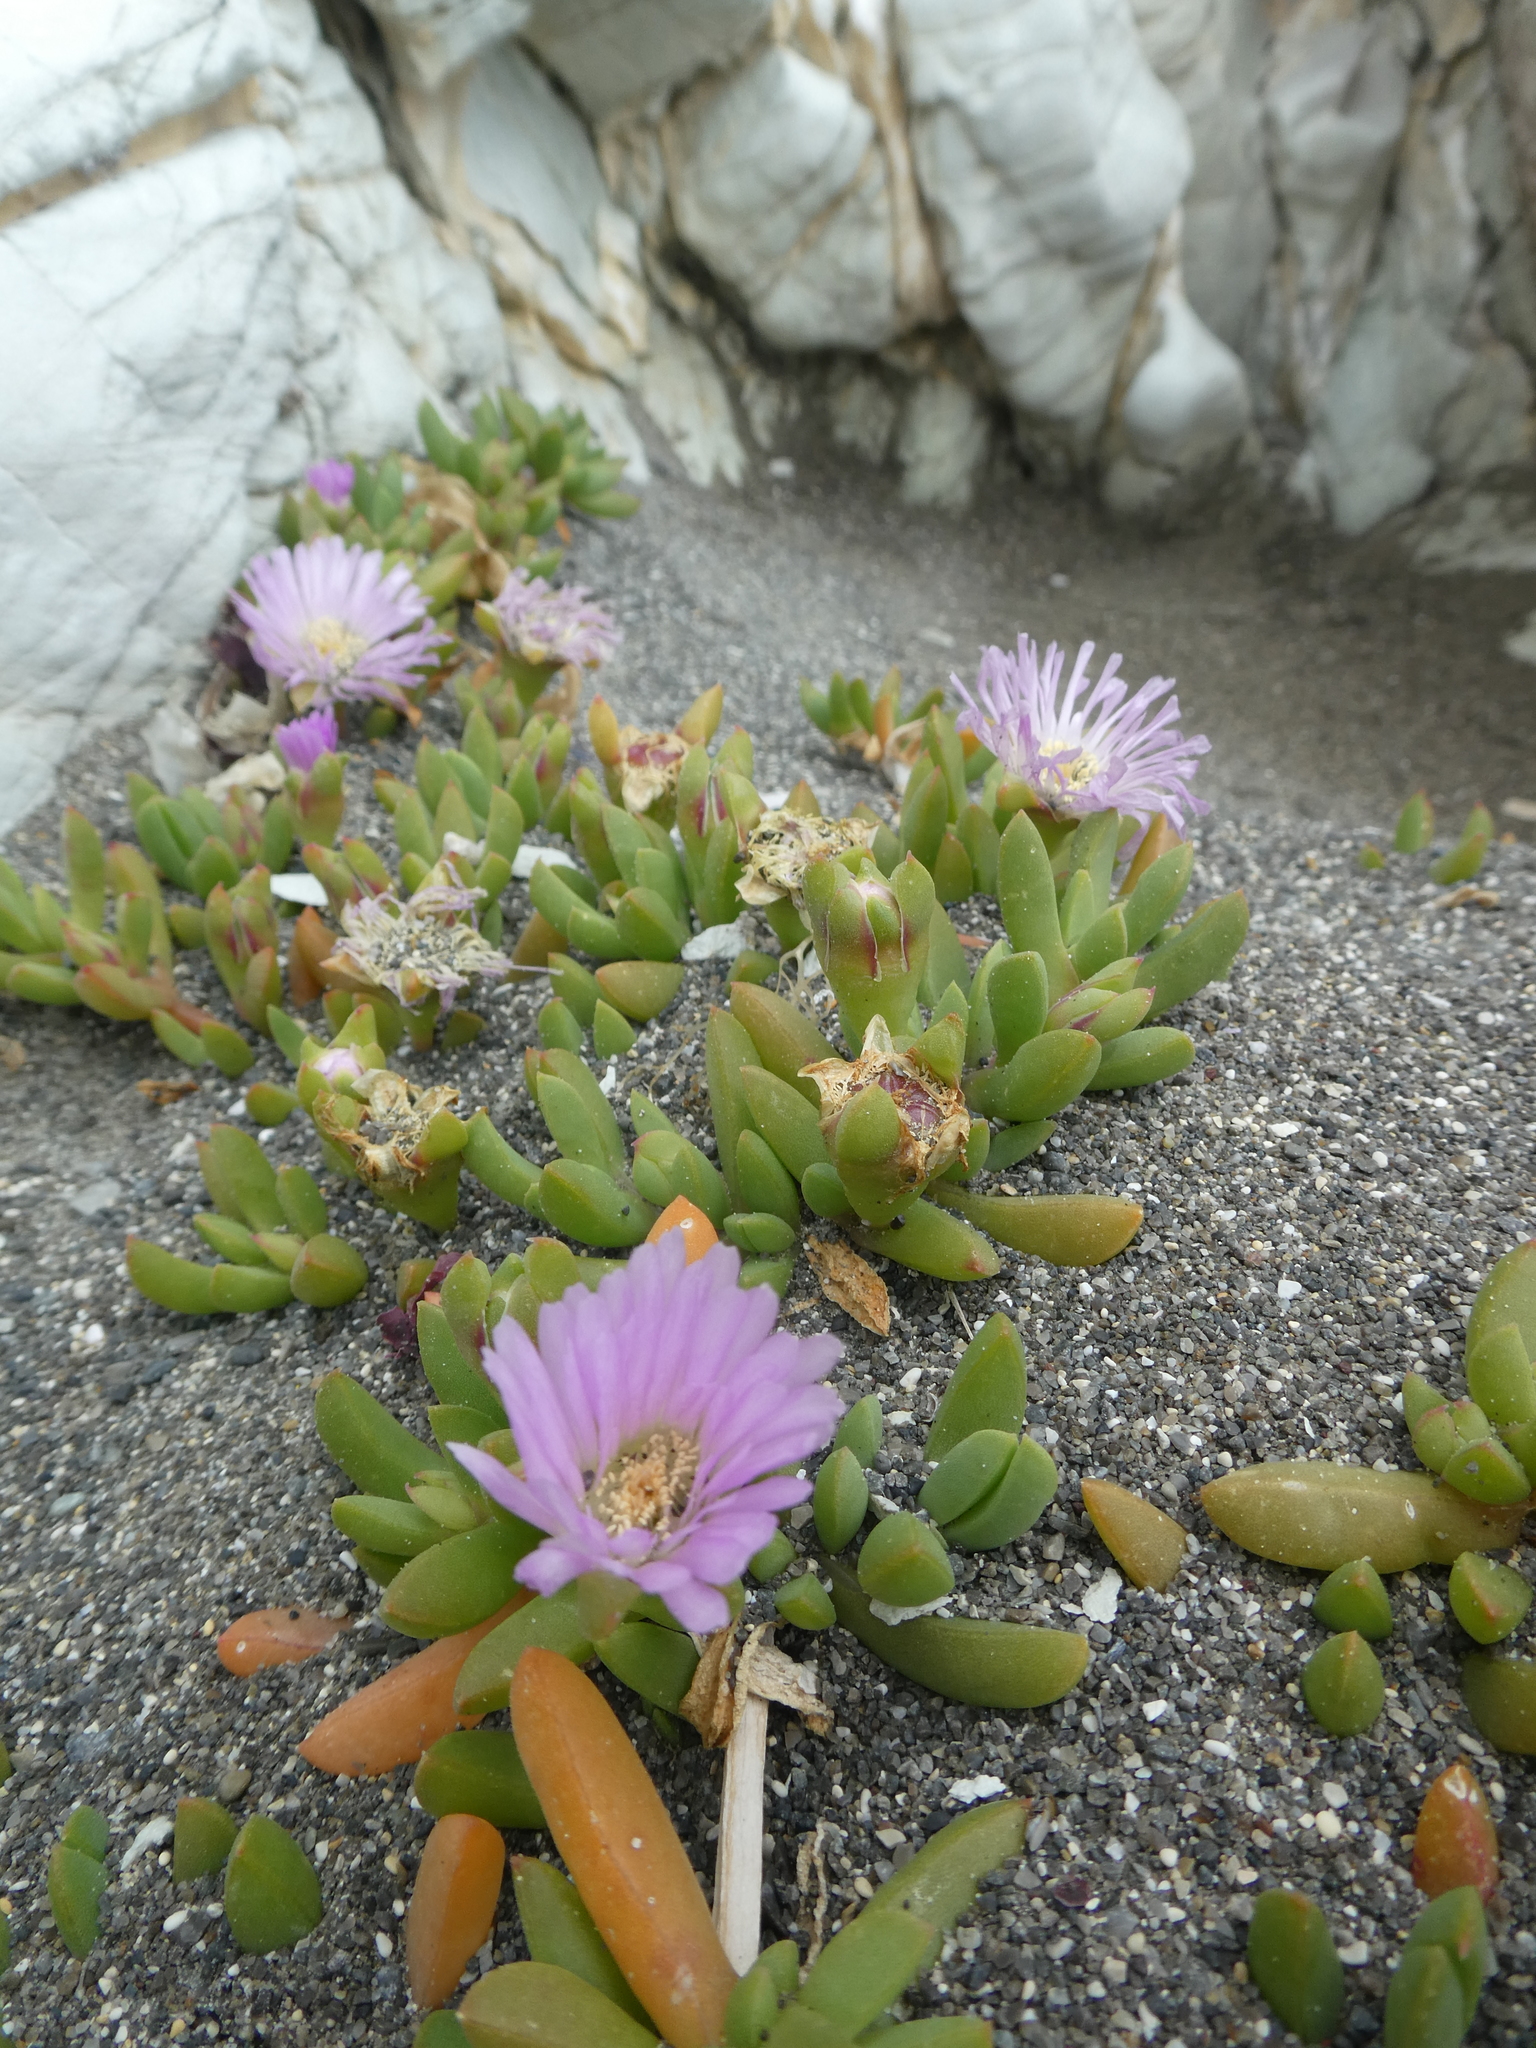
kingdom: Plantae
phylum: Tracheophyta
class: Magnoliopsida
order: Caryophyllales
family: Aizoaceae
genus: Disphyma
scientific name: Disphyma australe
